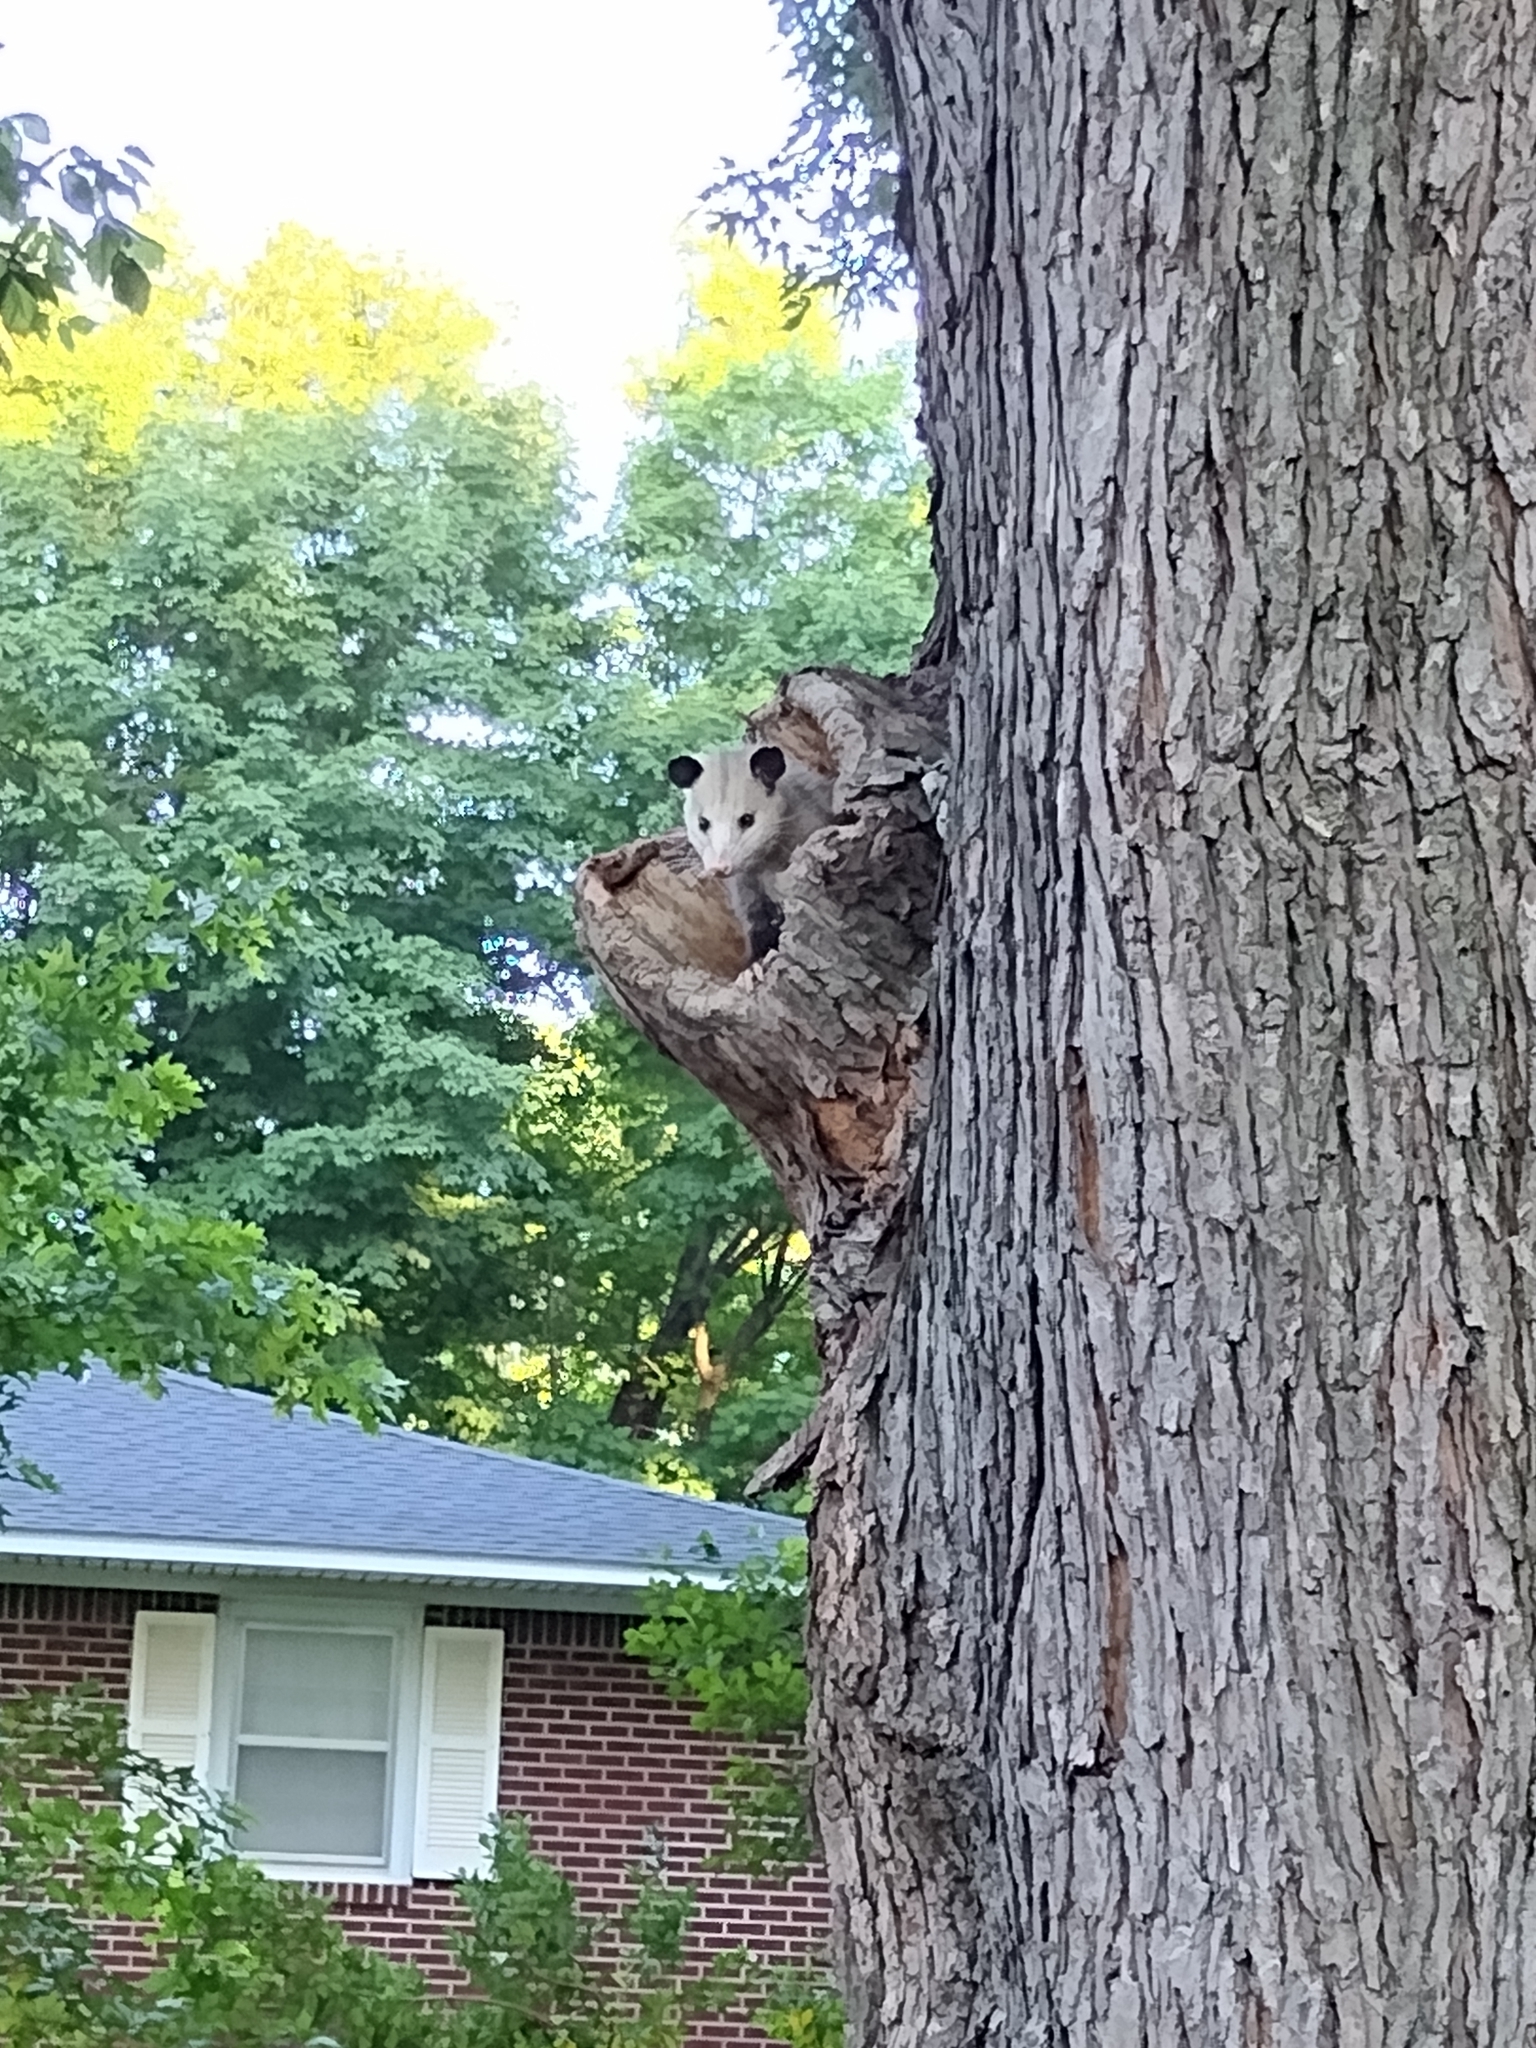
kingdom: Animalia
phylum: Chordata
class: Mammalia
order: Didelphimorphia
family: Didelphidae
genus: Didelphis
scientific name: Didelphis virginiana
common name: Virginia opossum
